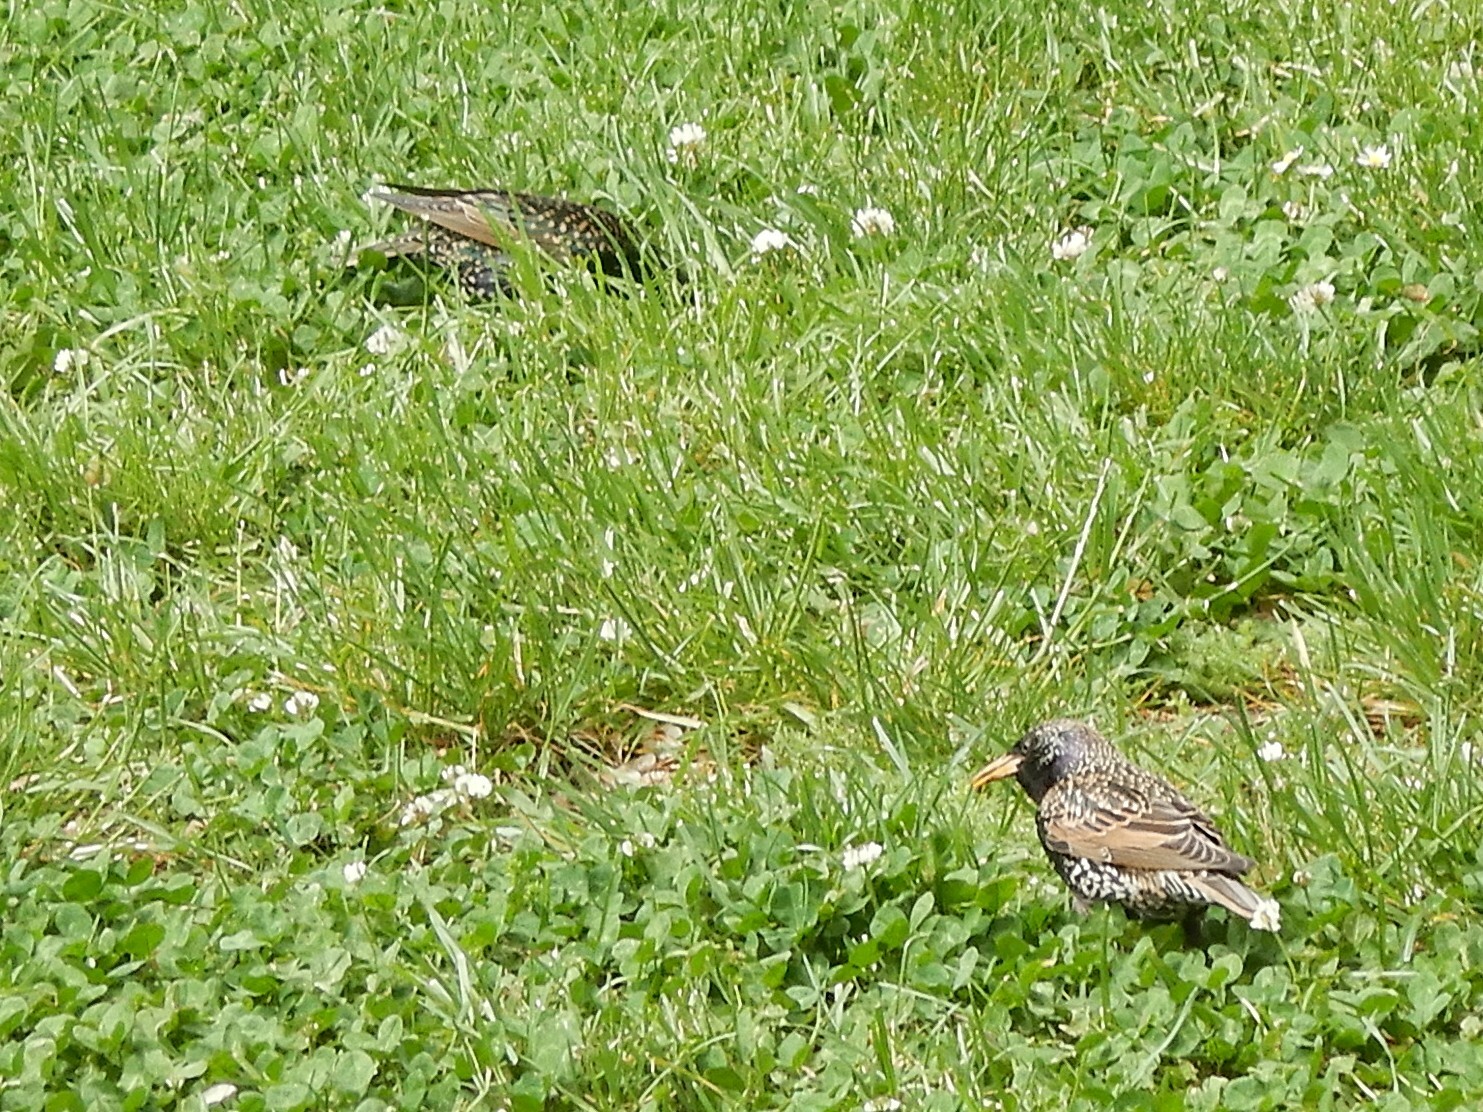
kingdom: Animalia
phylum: Chordata
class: Aves
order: Passeriformes
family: Sturnidae
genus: Sturnus
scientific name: Sturnus vulgaris
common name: Common starling
